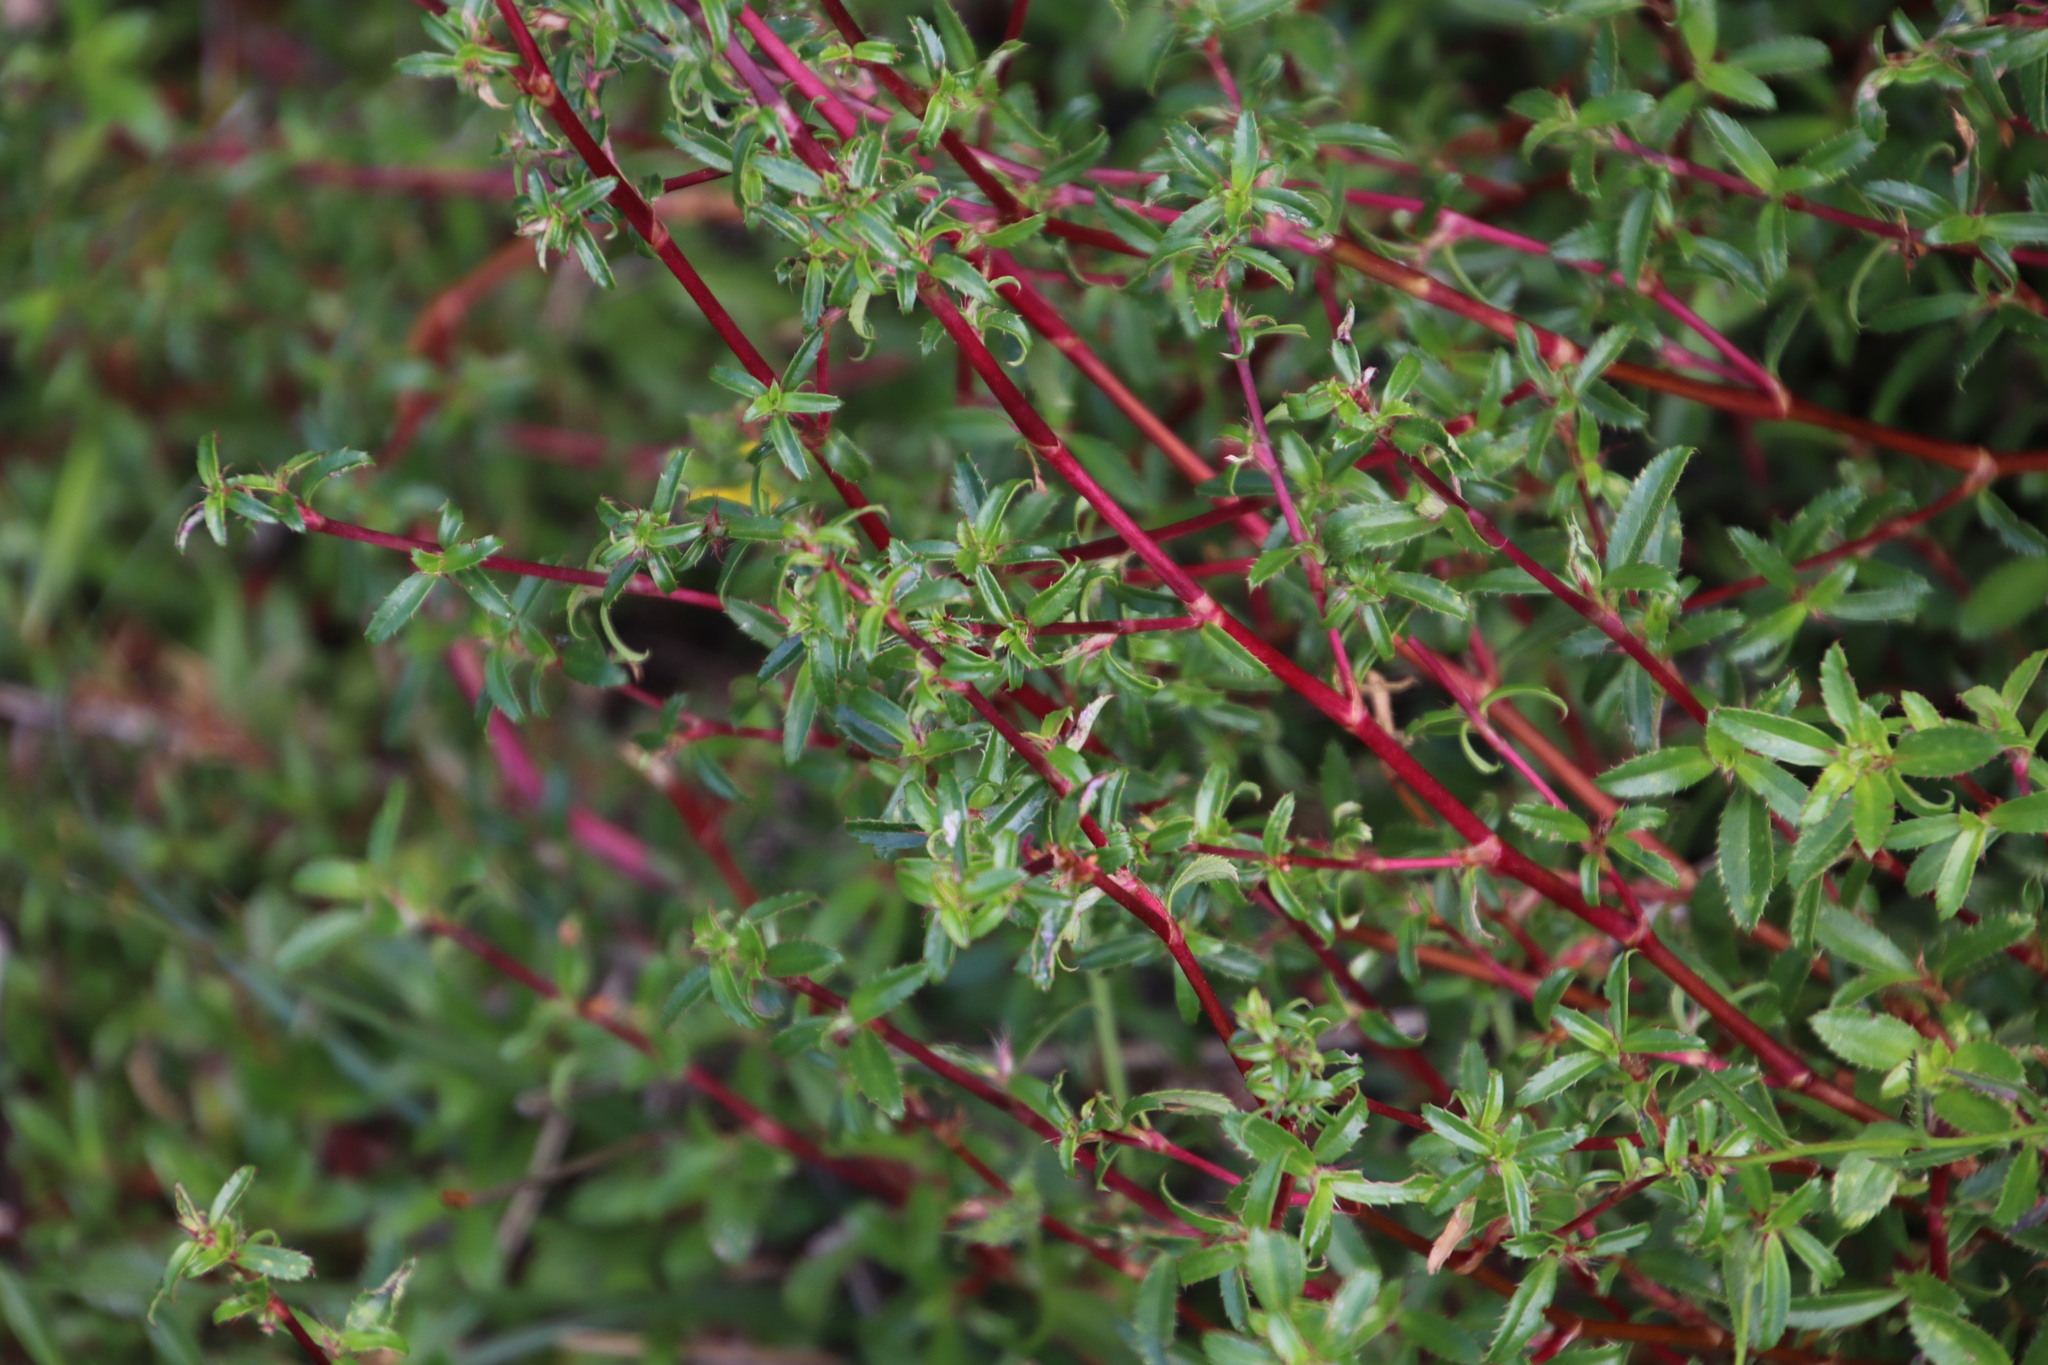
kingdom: Plantae
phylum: Tracheophyta
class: Magnoliopsida
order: Rosales
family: Rosaceae
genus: Cliffortia
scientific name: Cliffortia ferruginea
